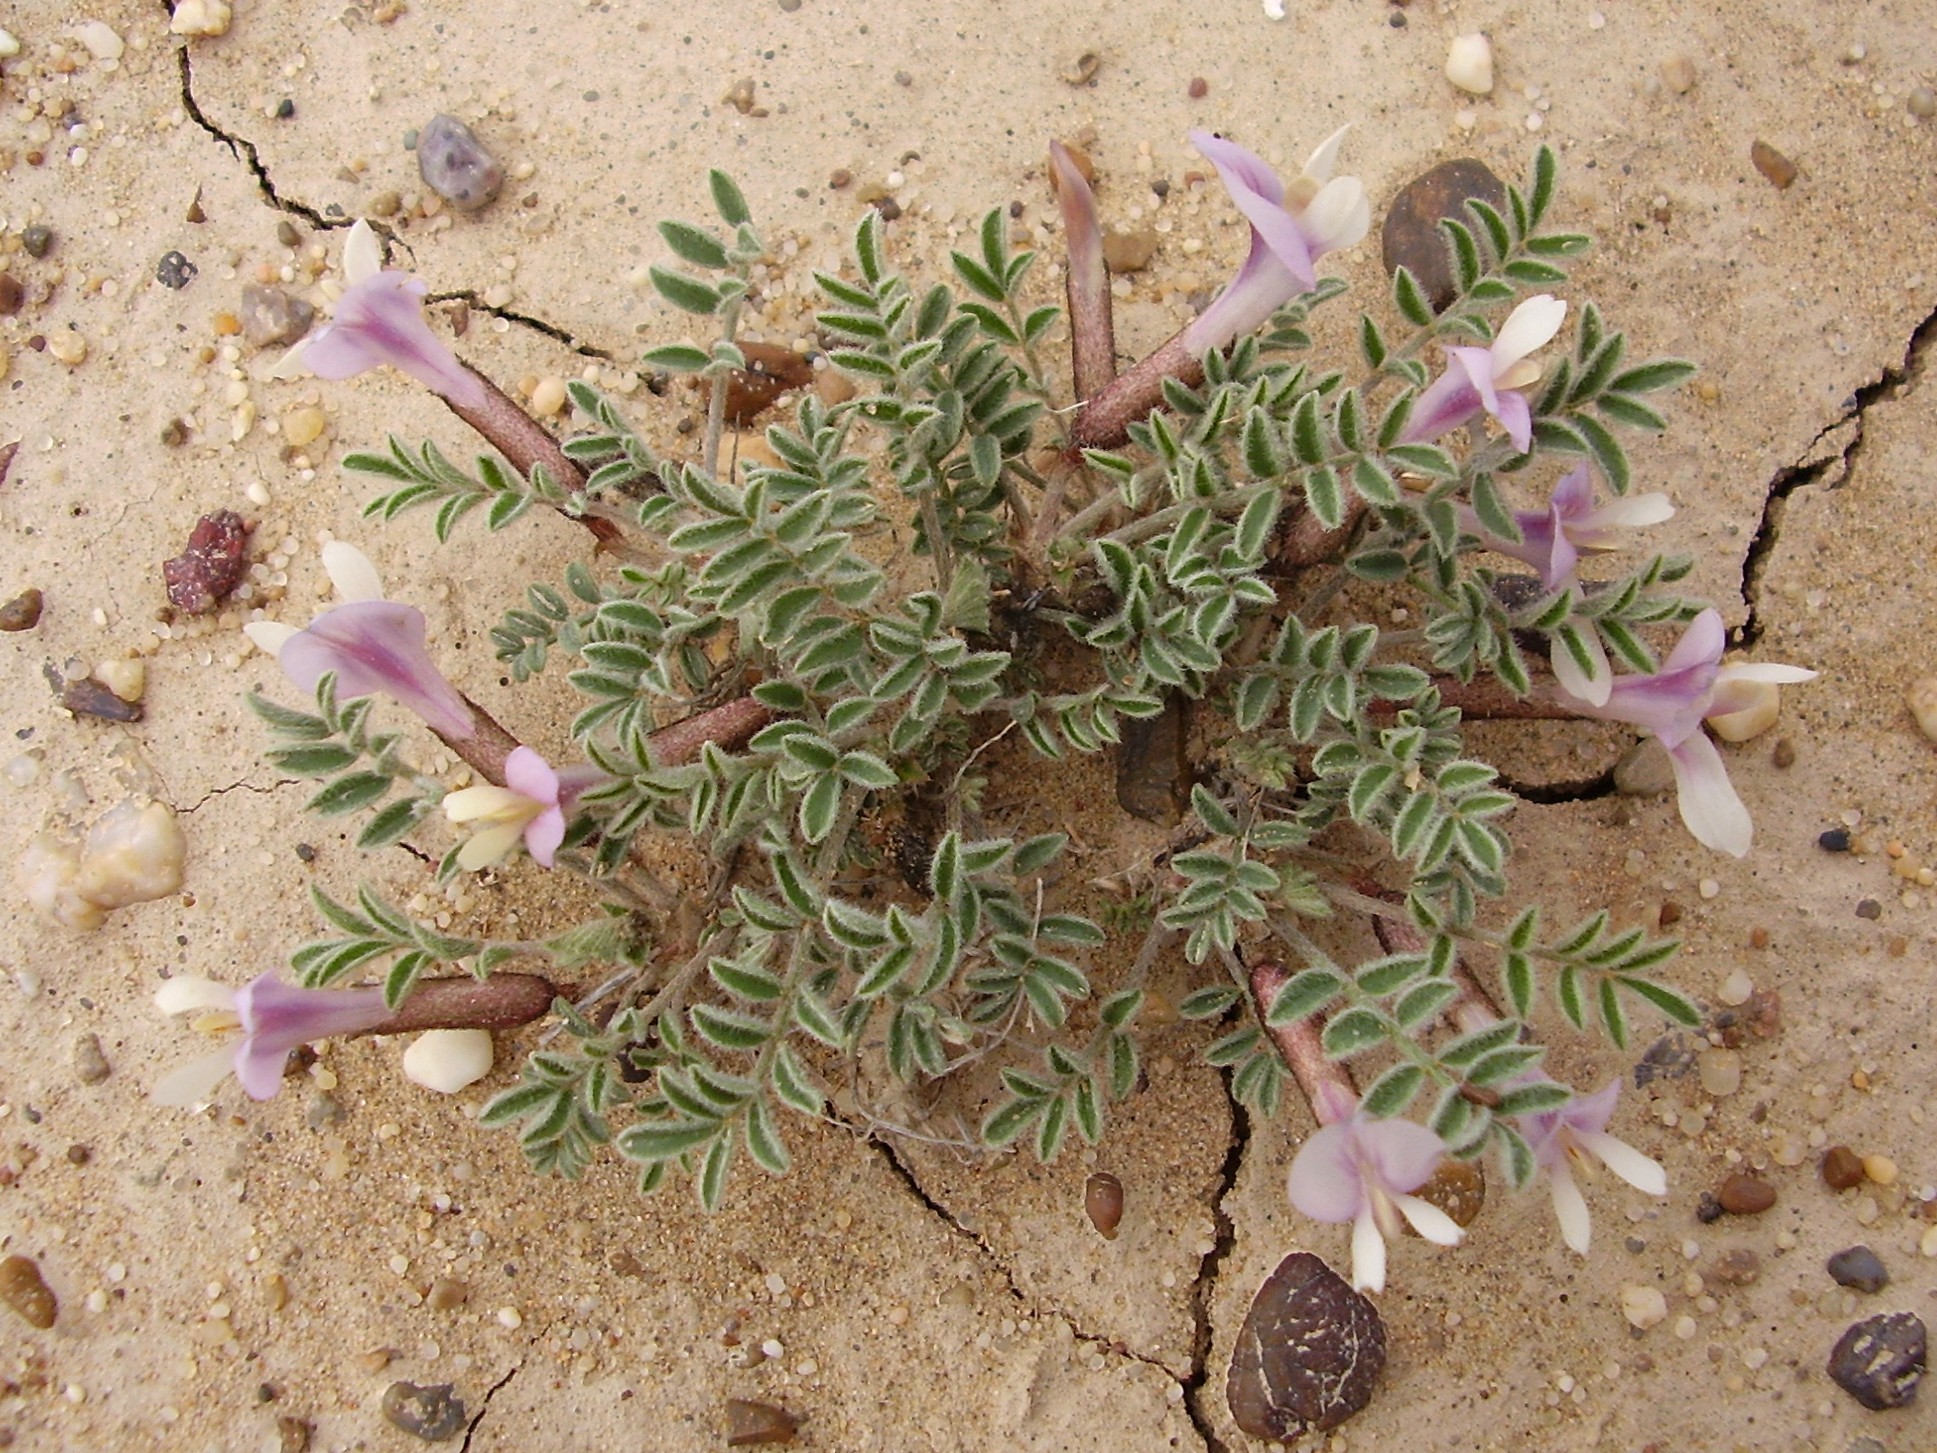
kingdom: Plantae
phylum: Tracheophyta
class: Magnoliopsida
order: Fabales
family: Fabaceae
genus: Astragalus
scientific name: Astragalus pallasii
